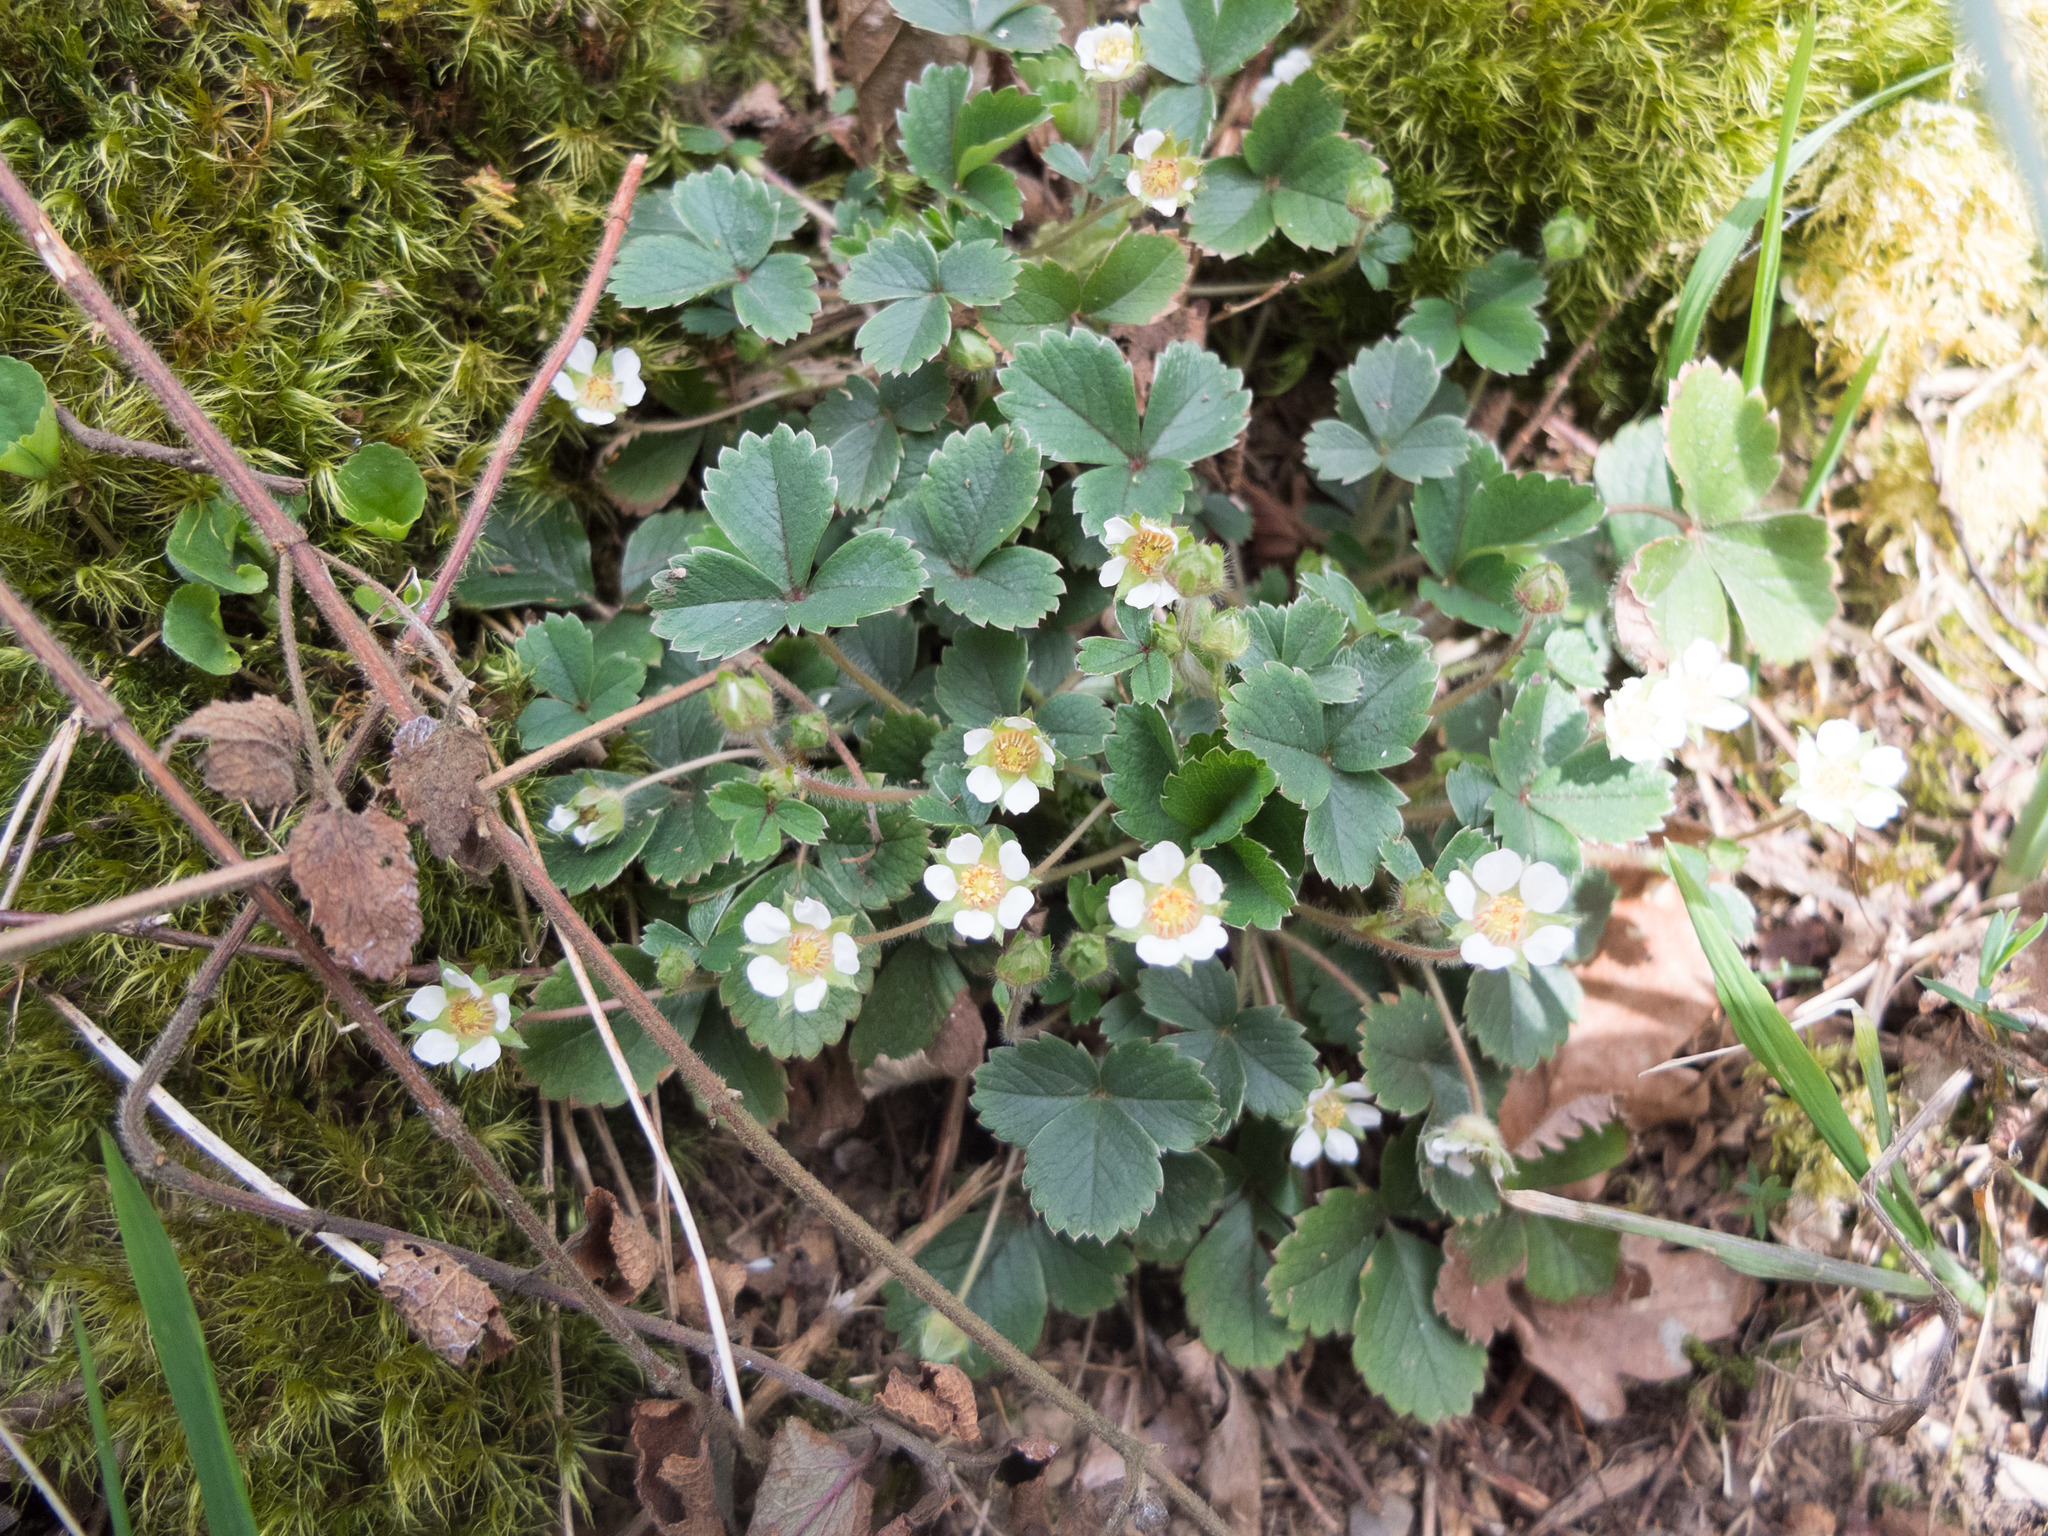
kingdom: Plantae
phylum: Tracheophyta
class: Magnoliopsida
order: Rosales
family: Rosaceae
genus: Potentilla
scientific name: Potentilla sterilis
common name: Barren strawberry
